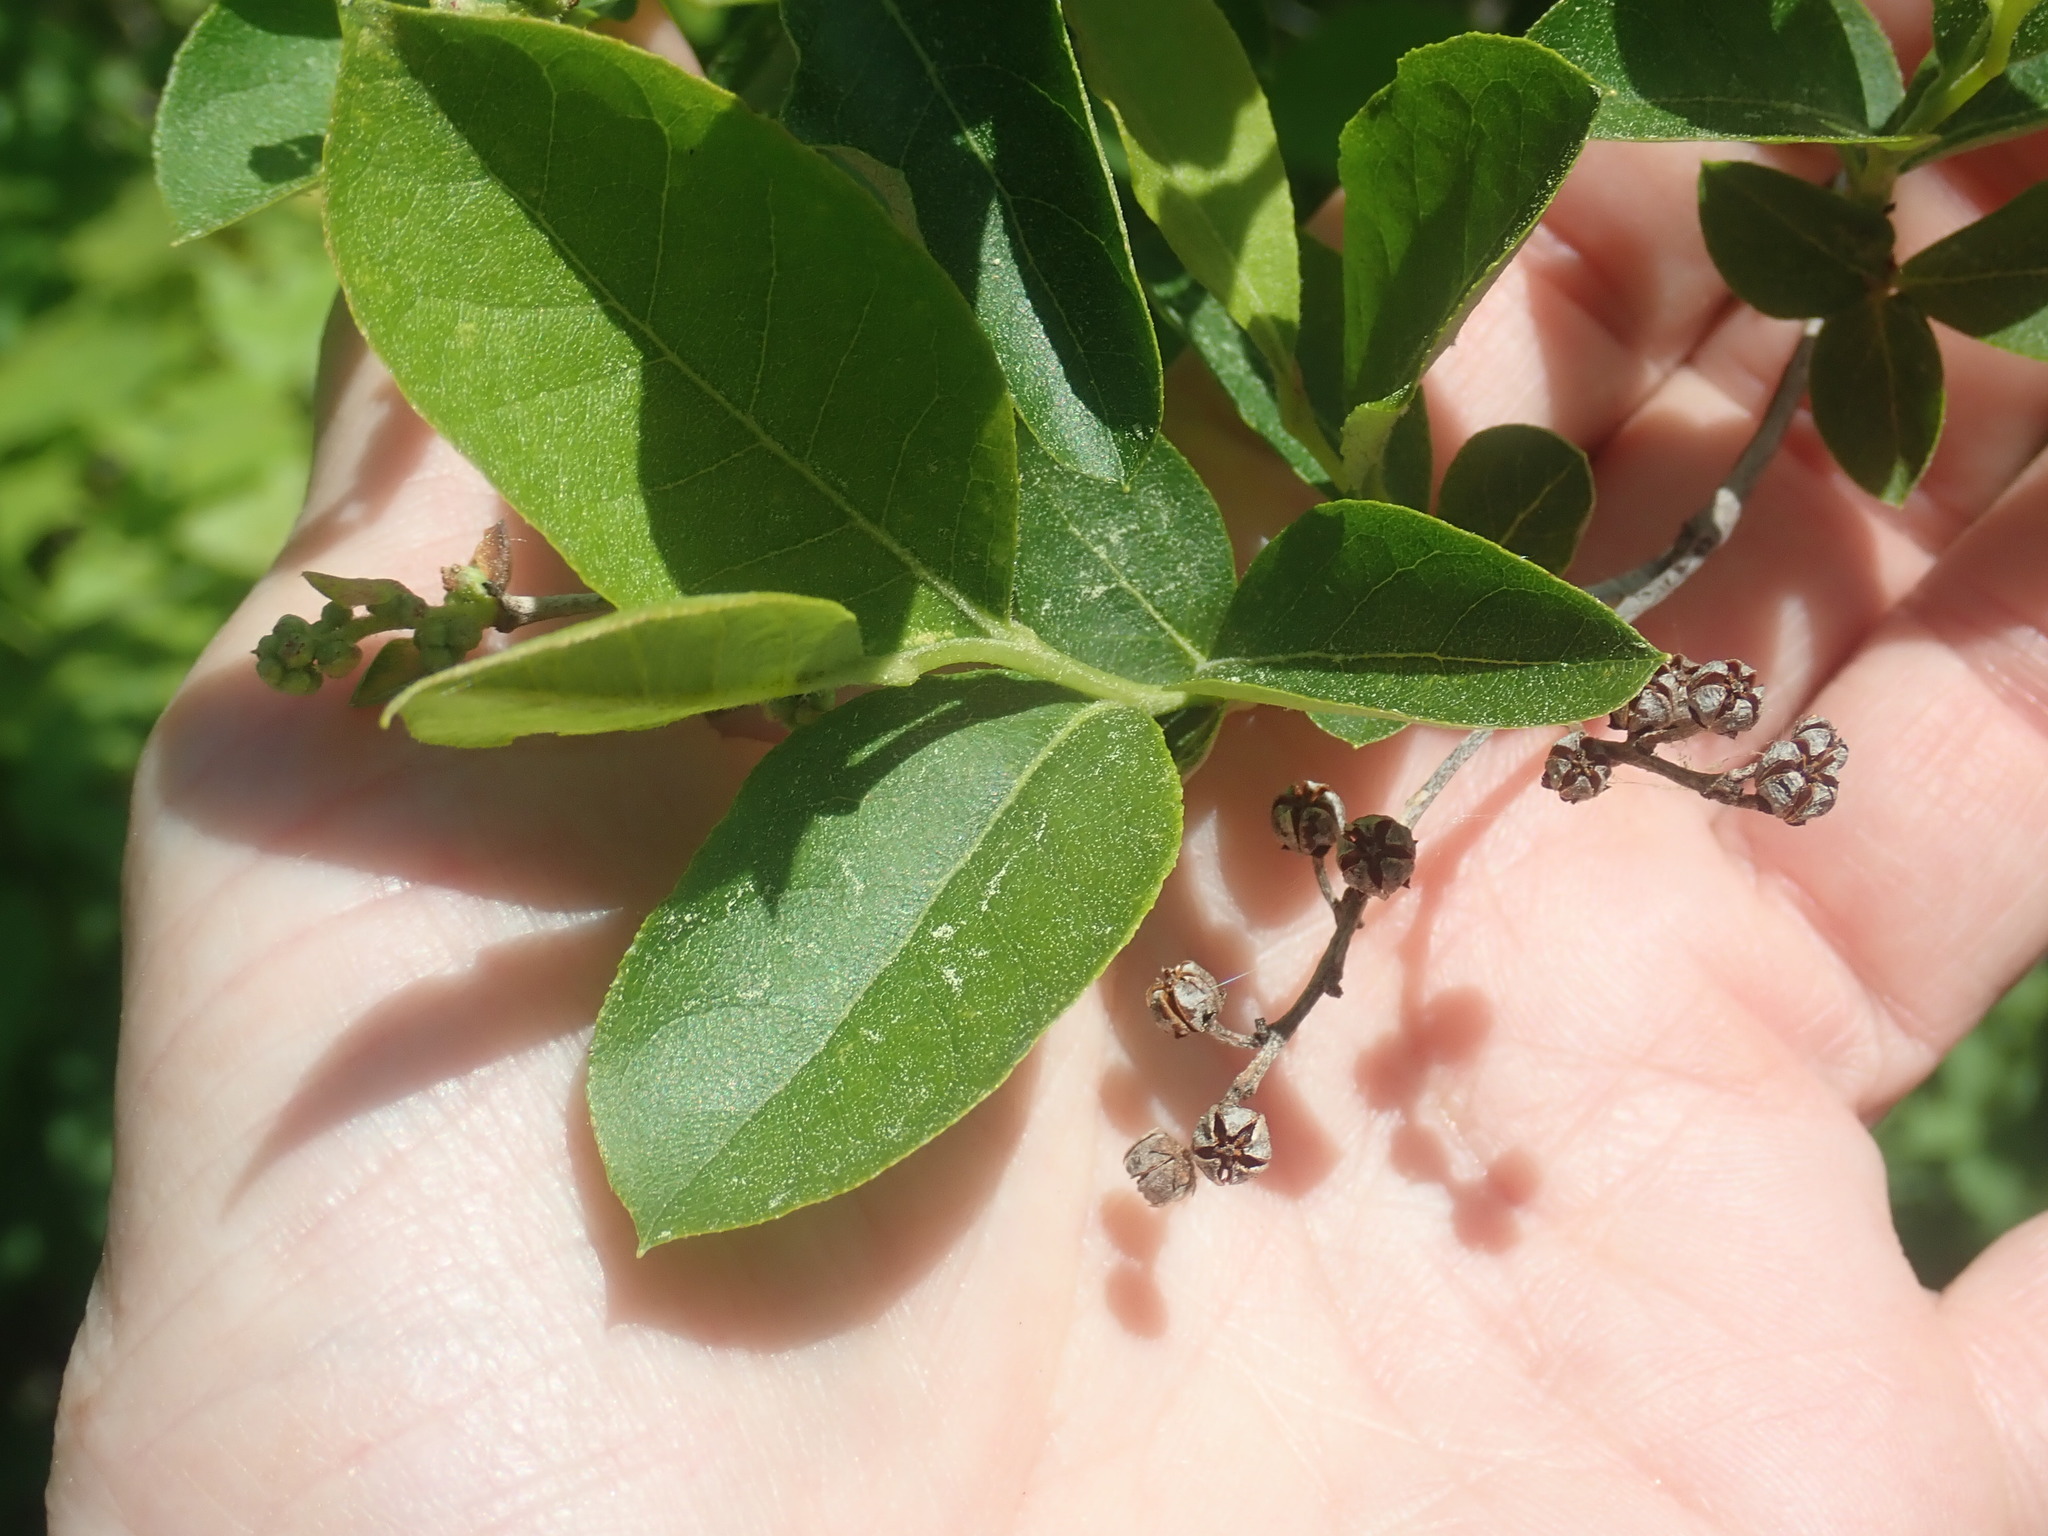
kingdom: Plantae
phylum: Tracheophyta
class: Magnoliopsida
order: Ericales
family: Ericaceae
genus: Lyonia
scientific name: Lyonia ligustrina
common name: Maleberry
